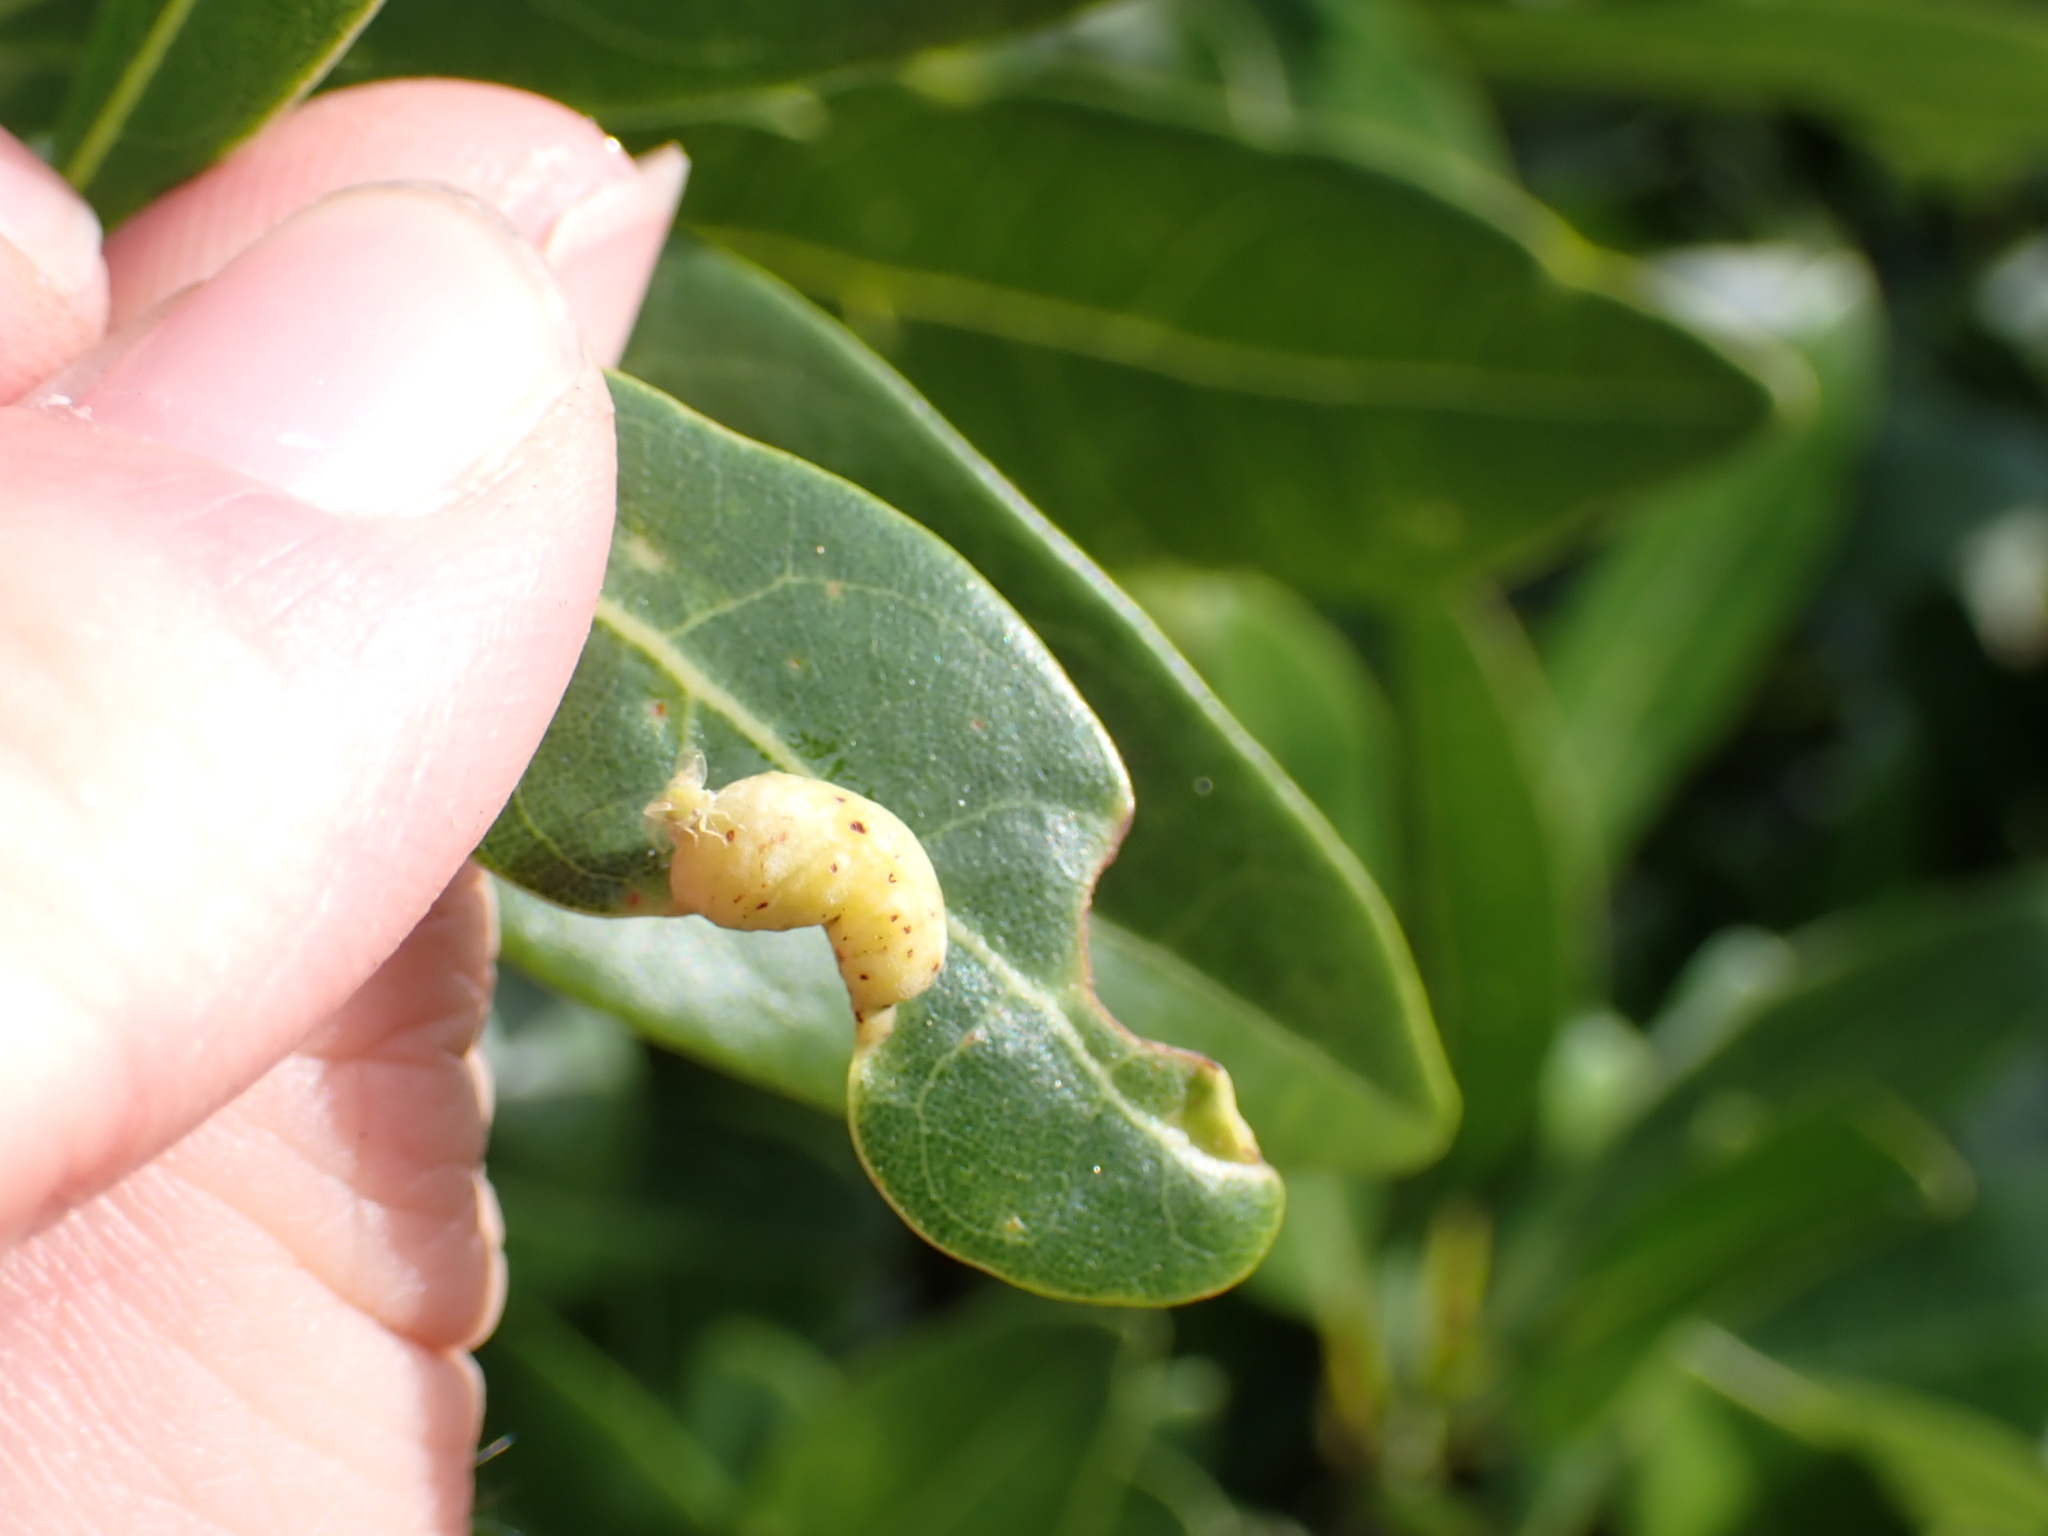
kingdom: Animalia
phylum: Arthropoda
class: Insecta
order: Hemiptera
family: Triozidae
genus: Trioza
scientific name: Trioza magnoliae
